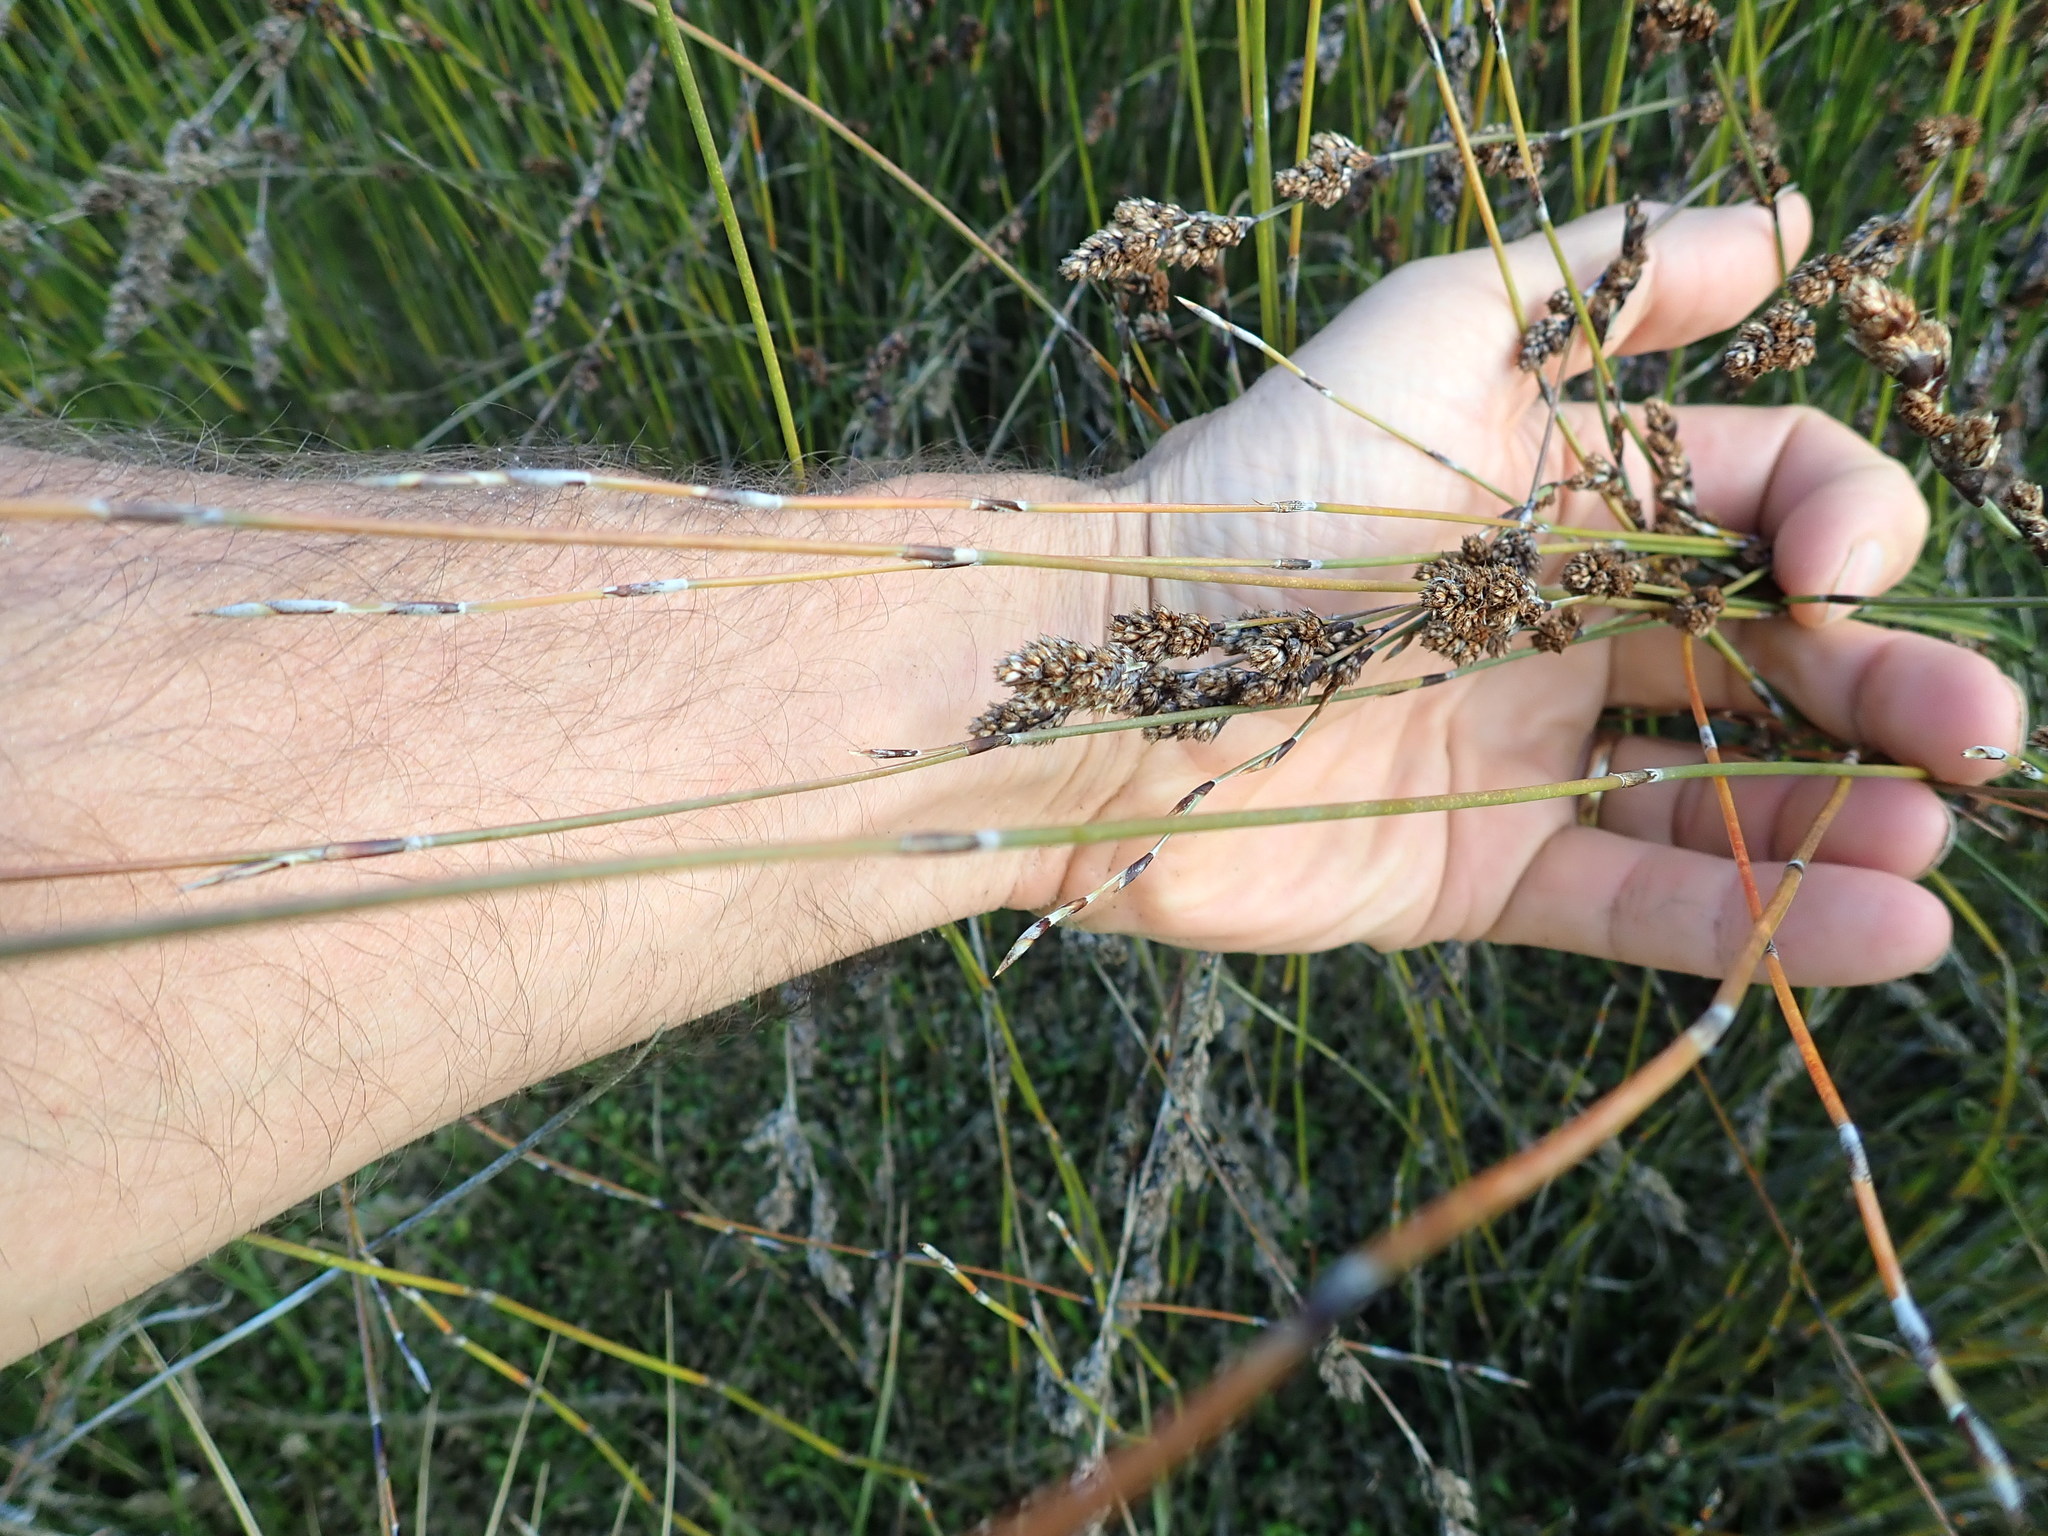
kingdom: Plantae
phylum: Tracheophyta
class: Liliopsida
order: Poales
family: Restionaceae
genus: Apodasmia
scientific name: Apodasmia similis
